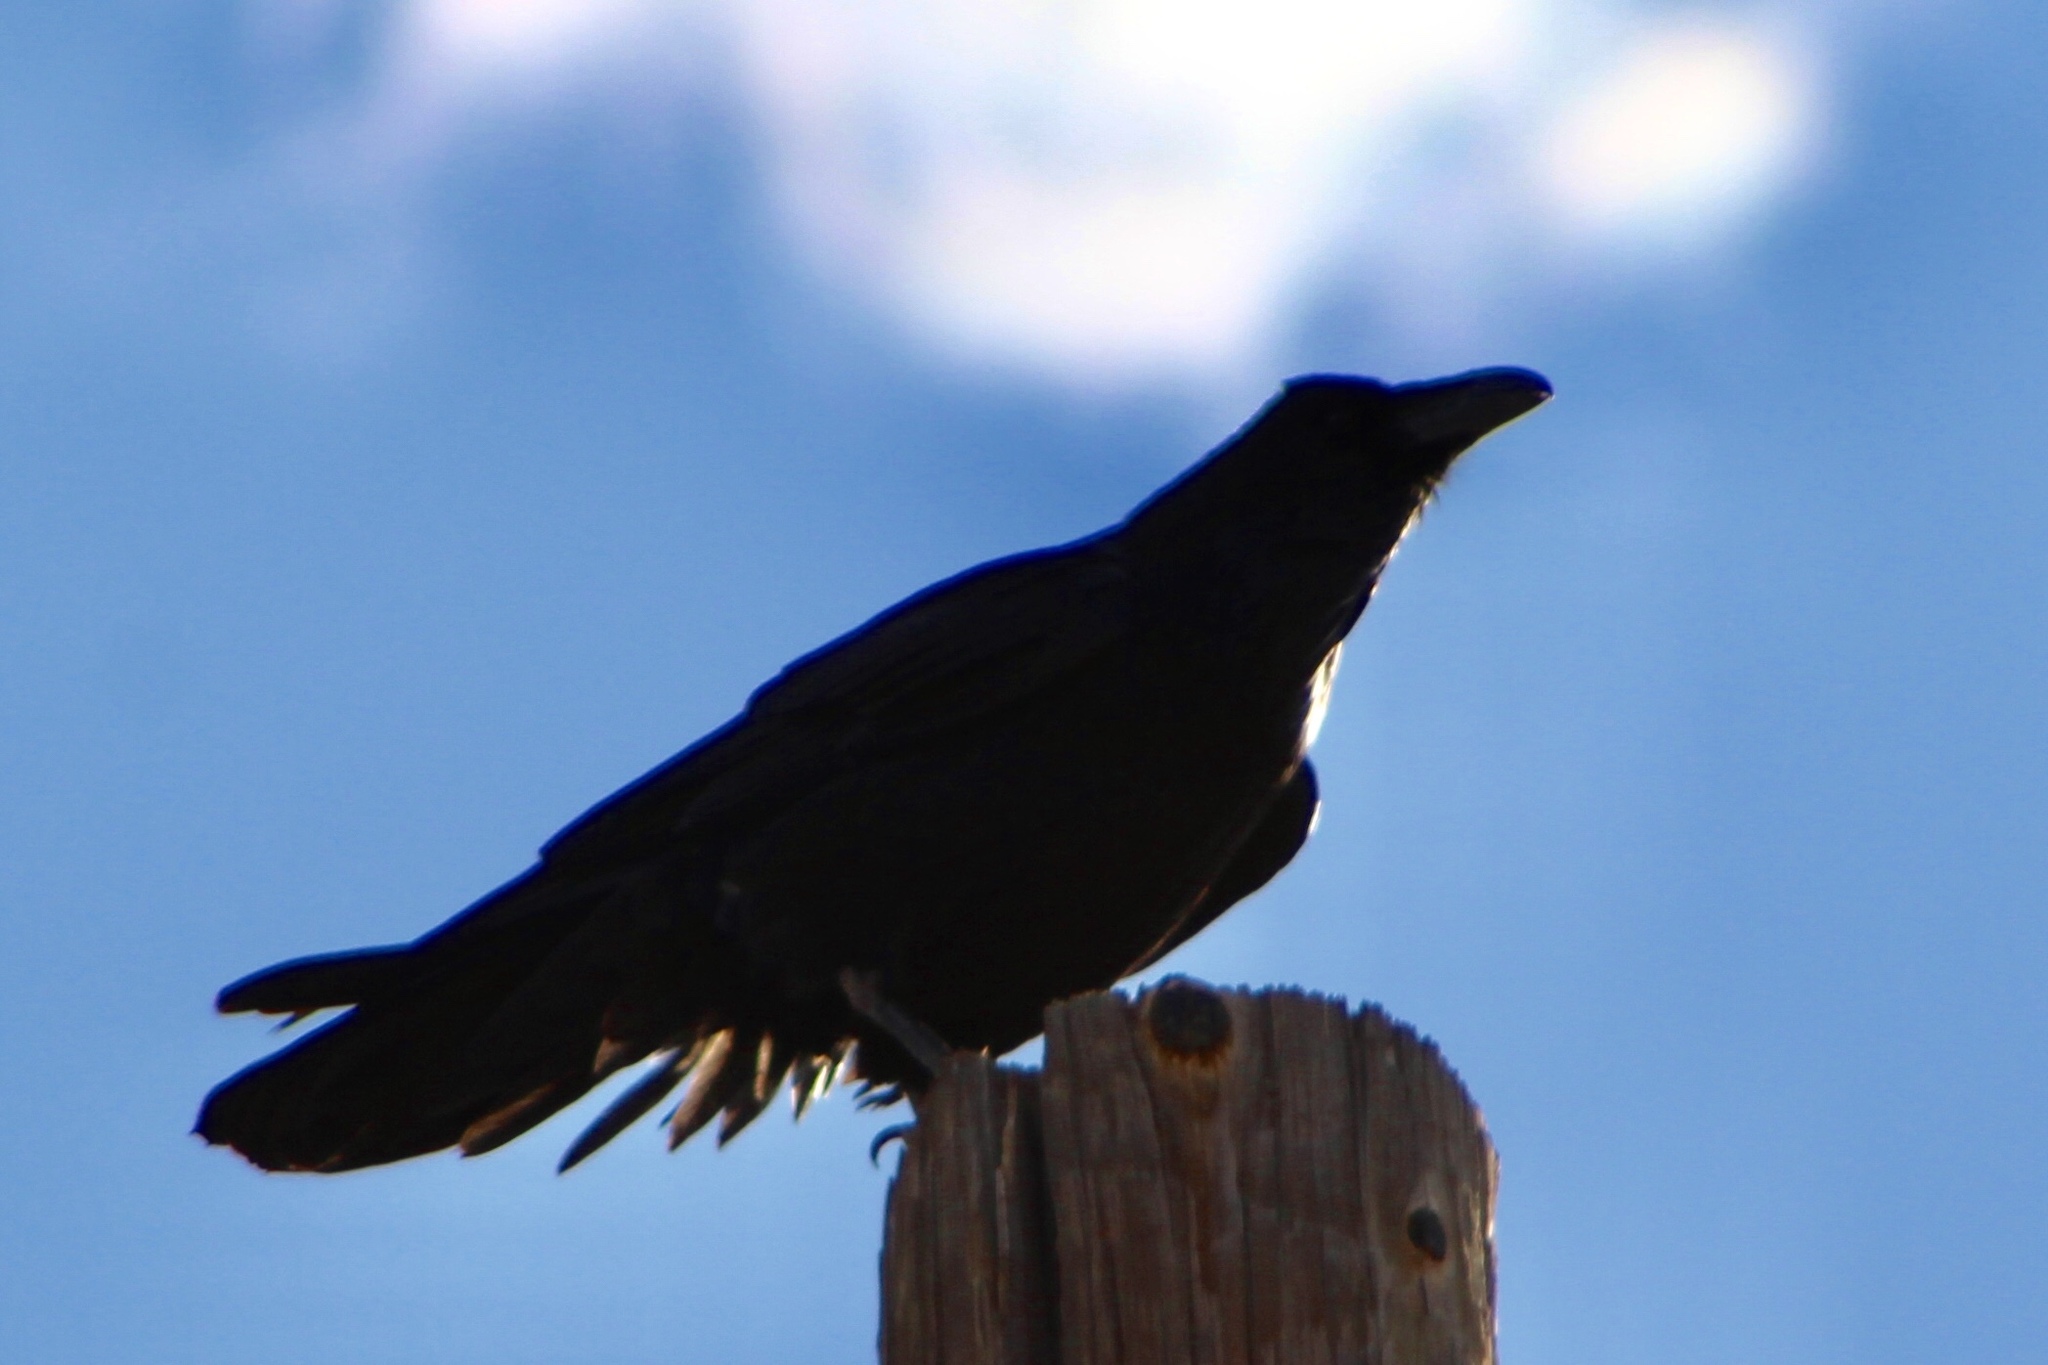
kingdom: Animalia
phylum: Chordata
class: Aves
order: Passeriformes
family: Corvidae
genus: Corvus
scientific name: Corvus corax
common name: Common raven
